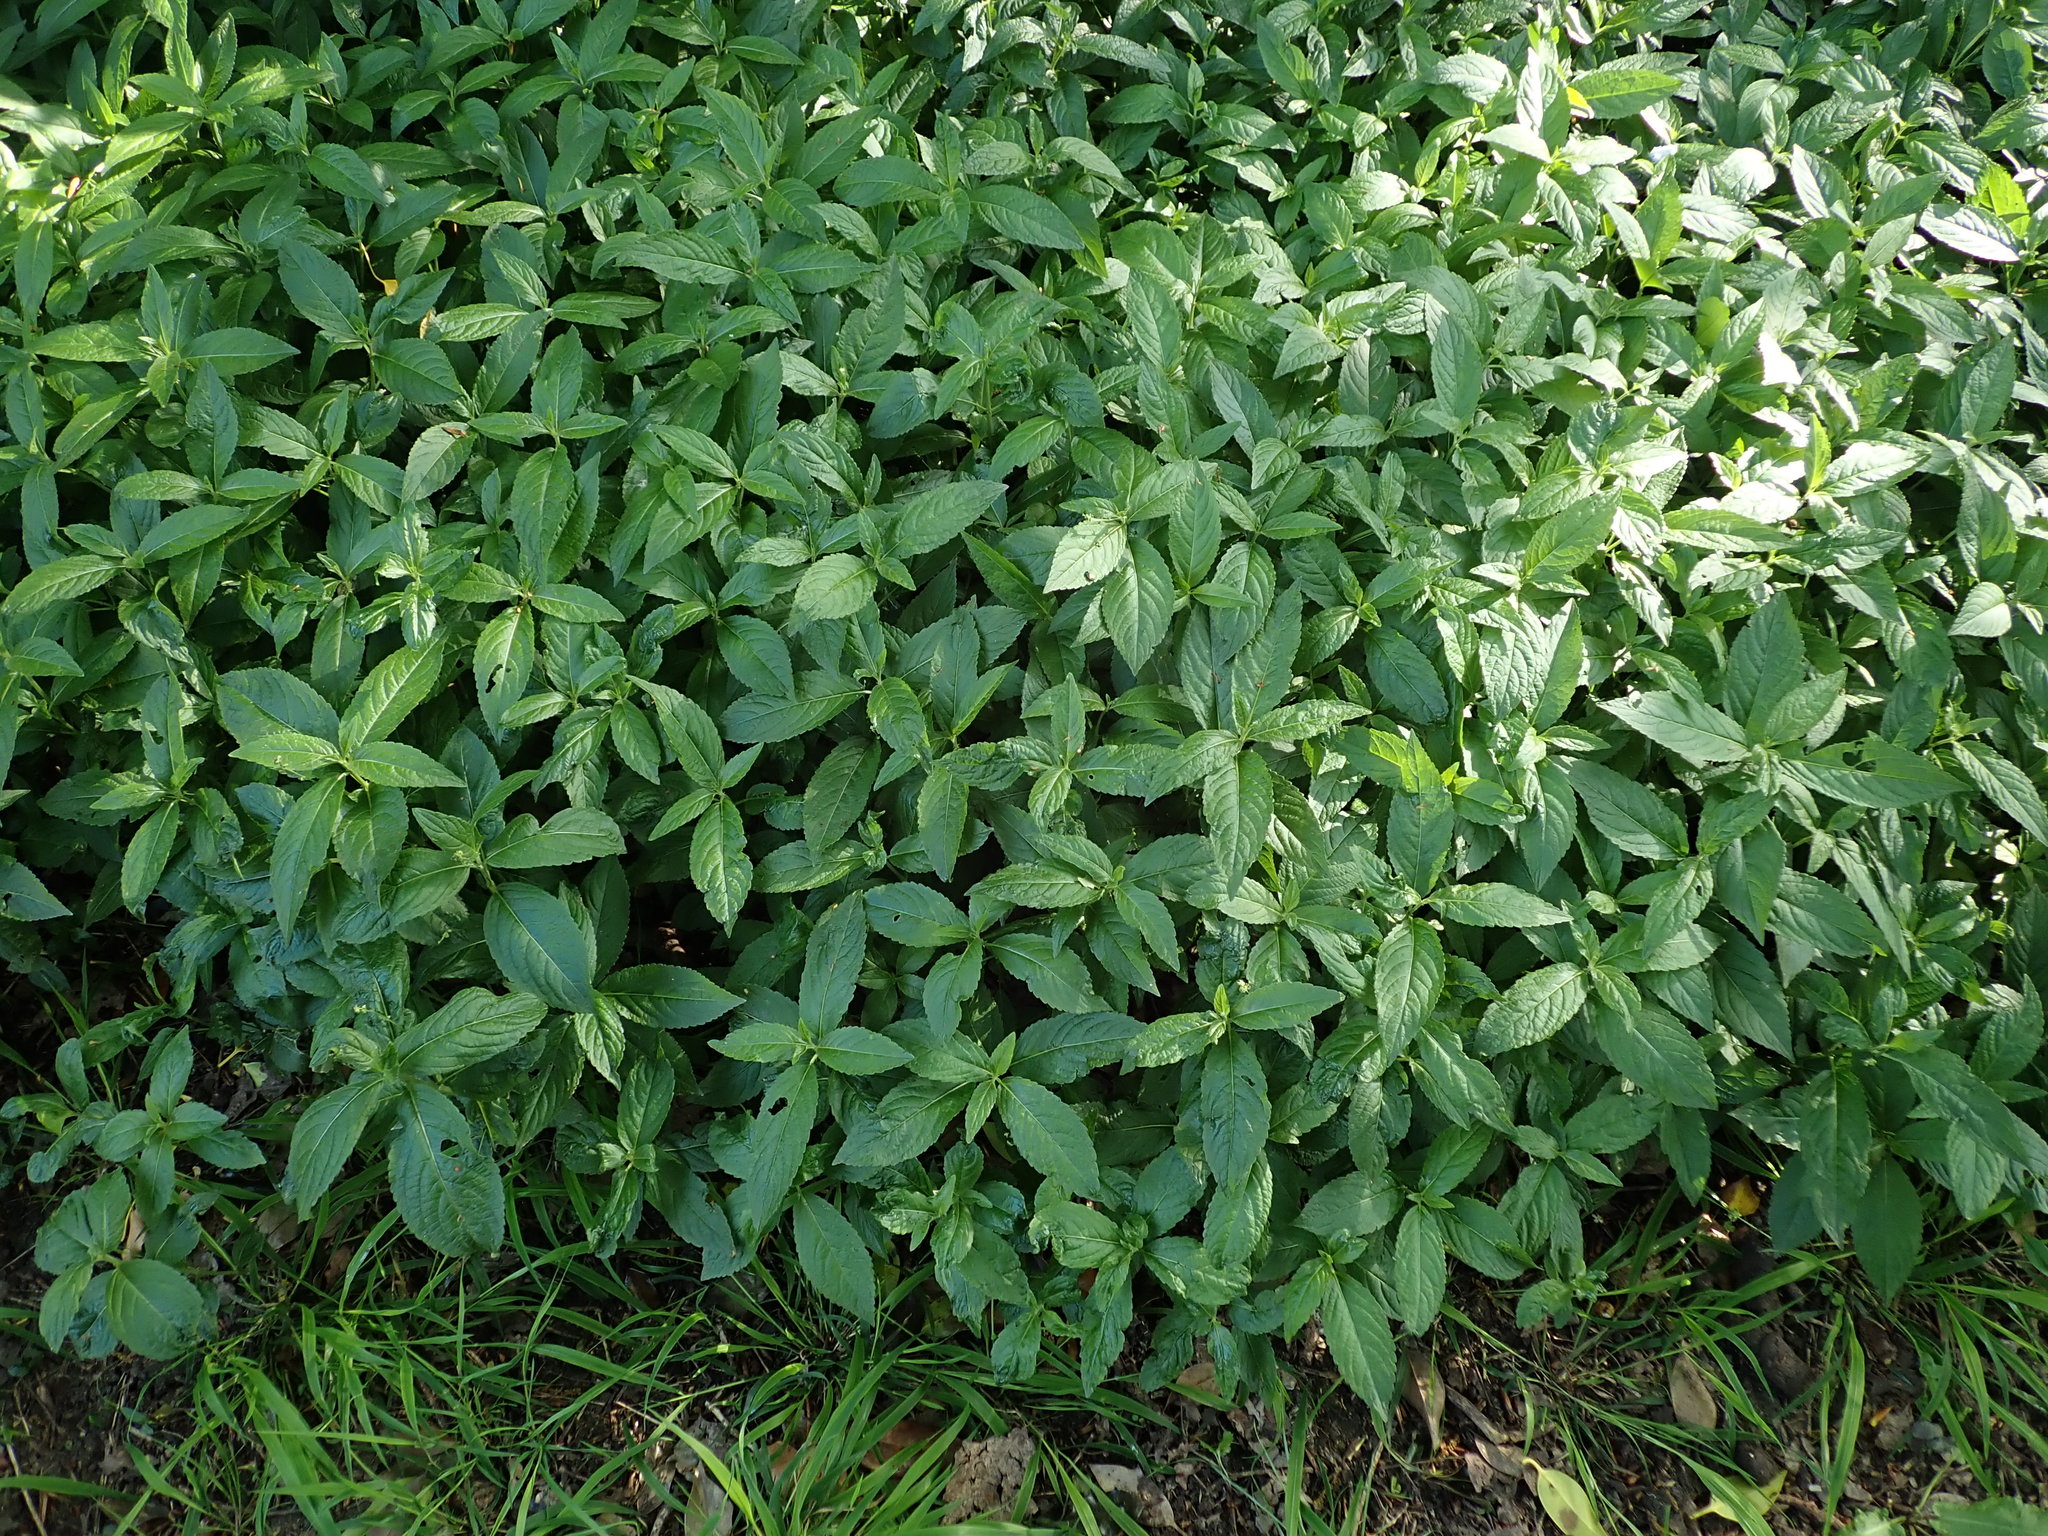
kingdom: Plantae
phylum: Tracheophyta
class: Magnoliopsida
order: Malpighiales
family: Euphorbiaceae
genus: Mercurialis
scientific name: Mercurialis perennis
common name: Dog mercury
